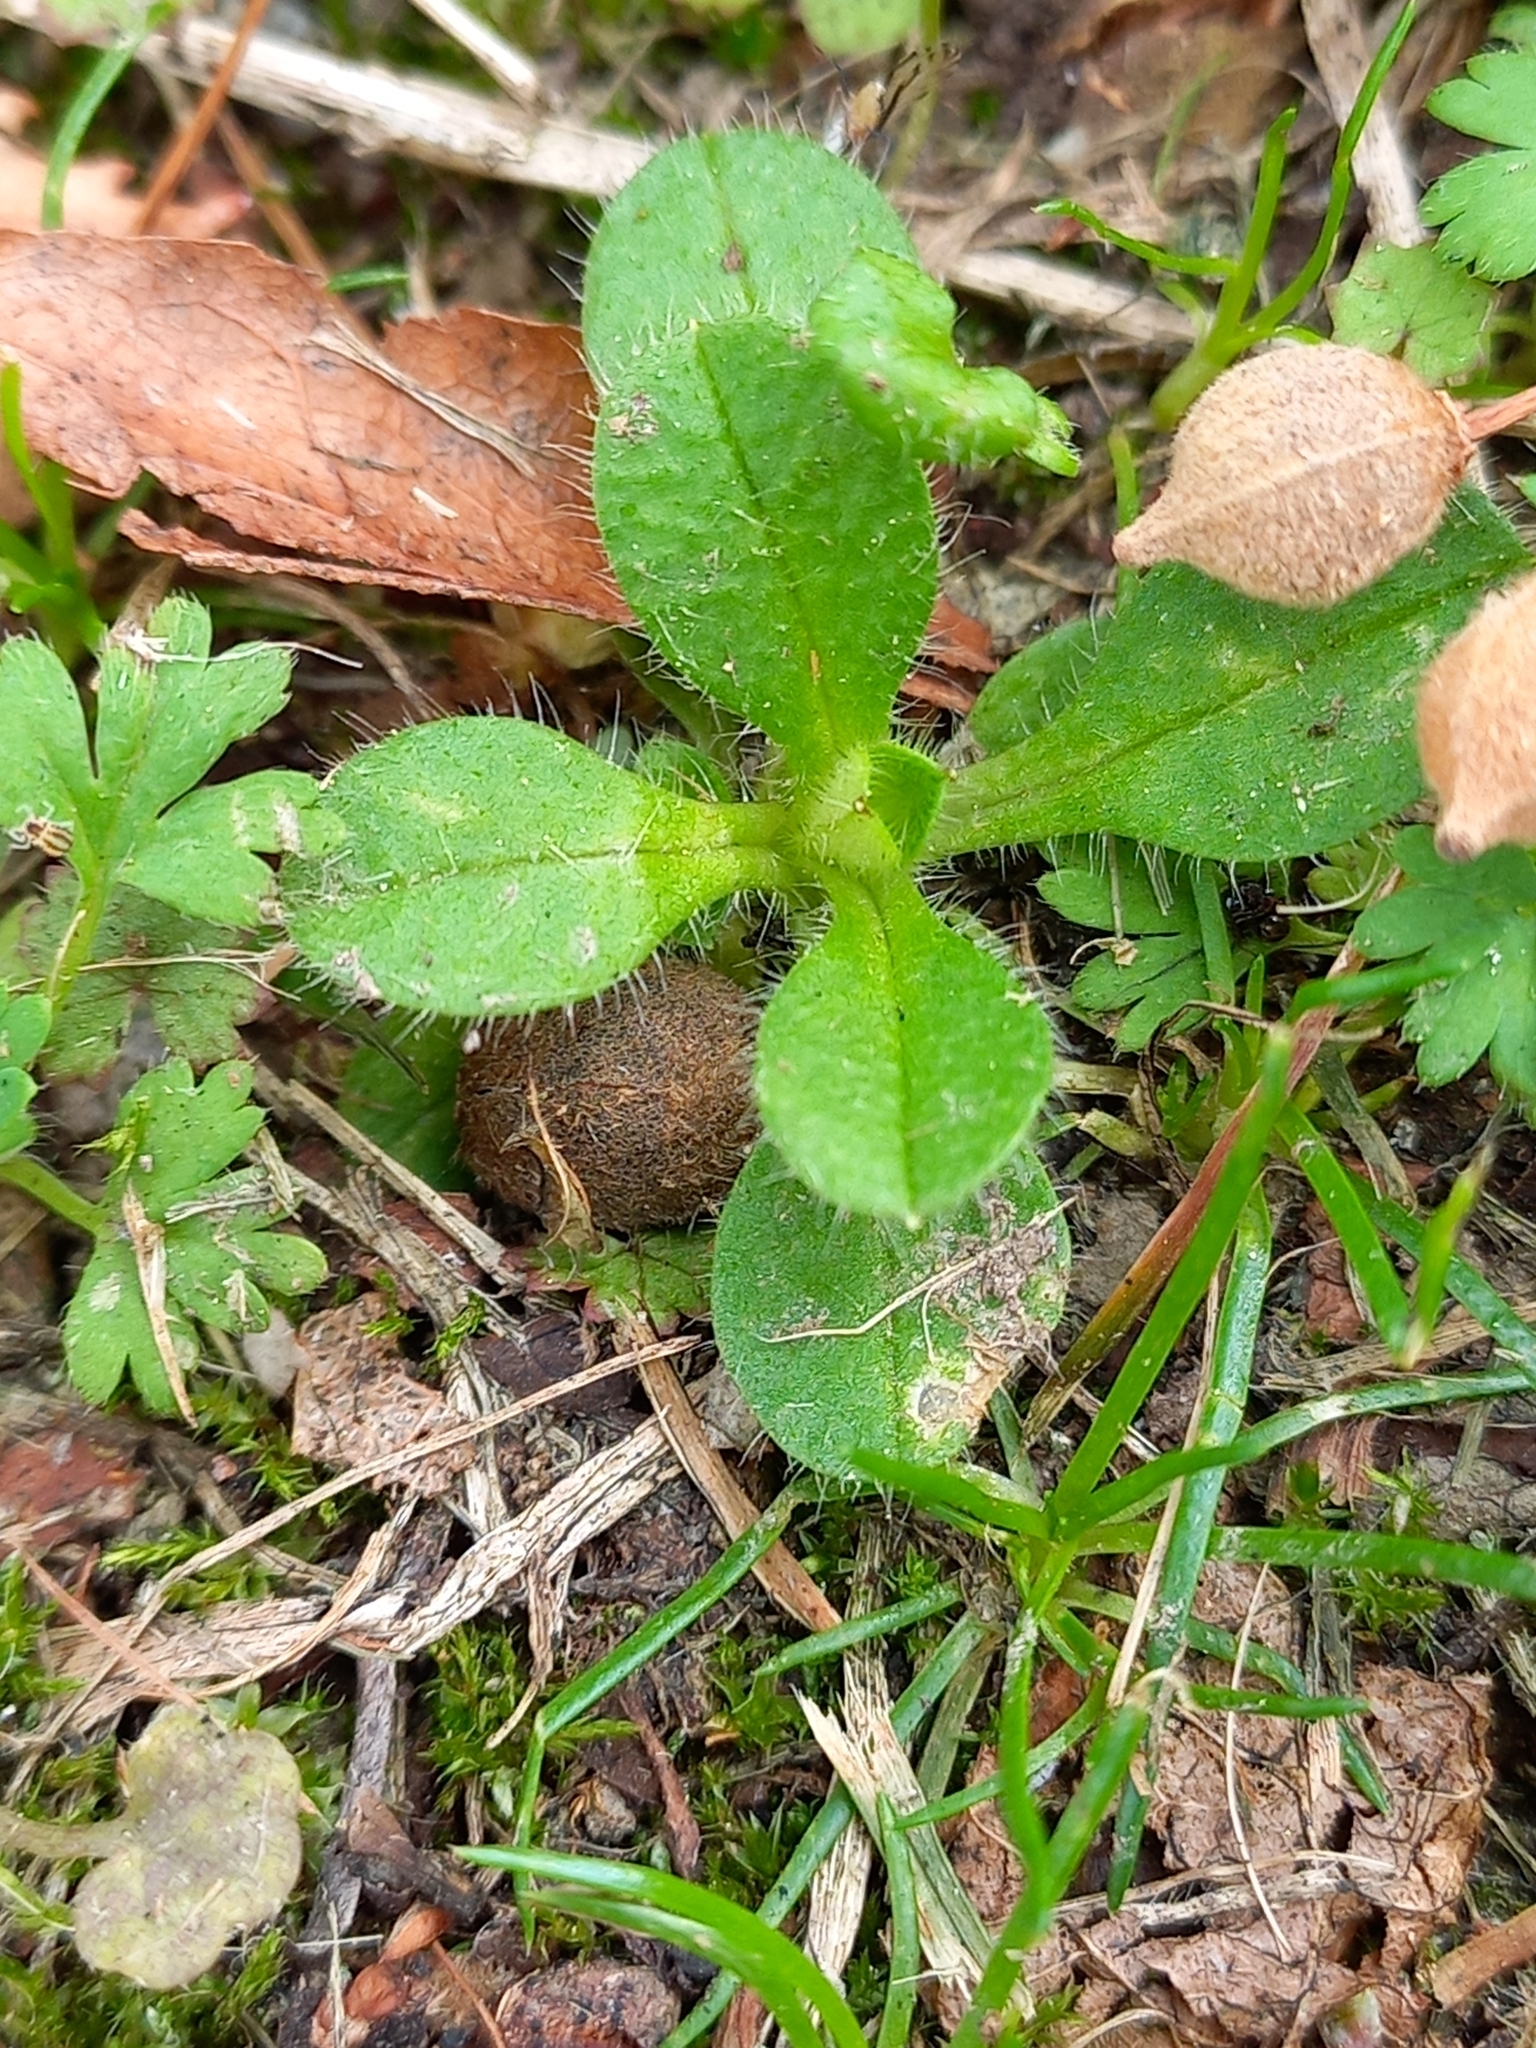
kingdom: Plantae
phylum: Tracheophyta
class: Magnoliopsida
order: Caryophyllales
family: Caryophyllaceae
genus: Cerastium
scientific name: Cerastium glomeratum
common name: Sticky chickweed
